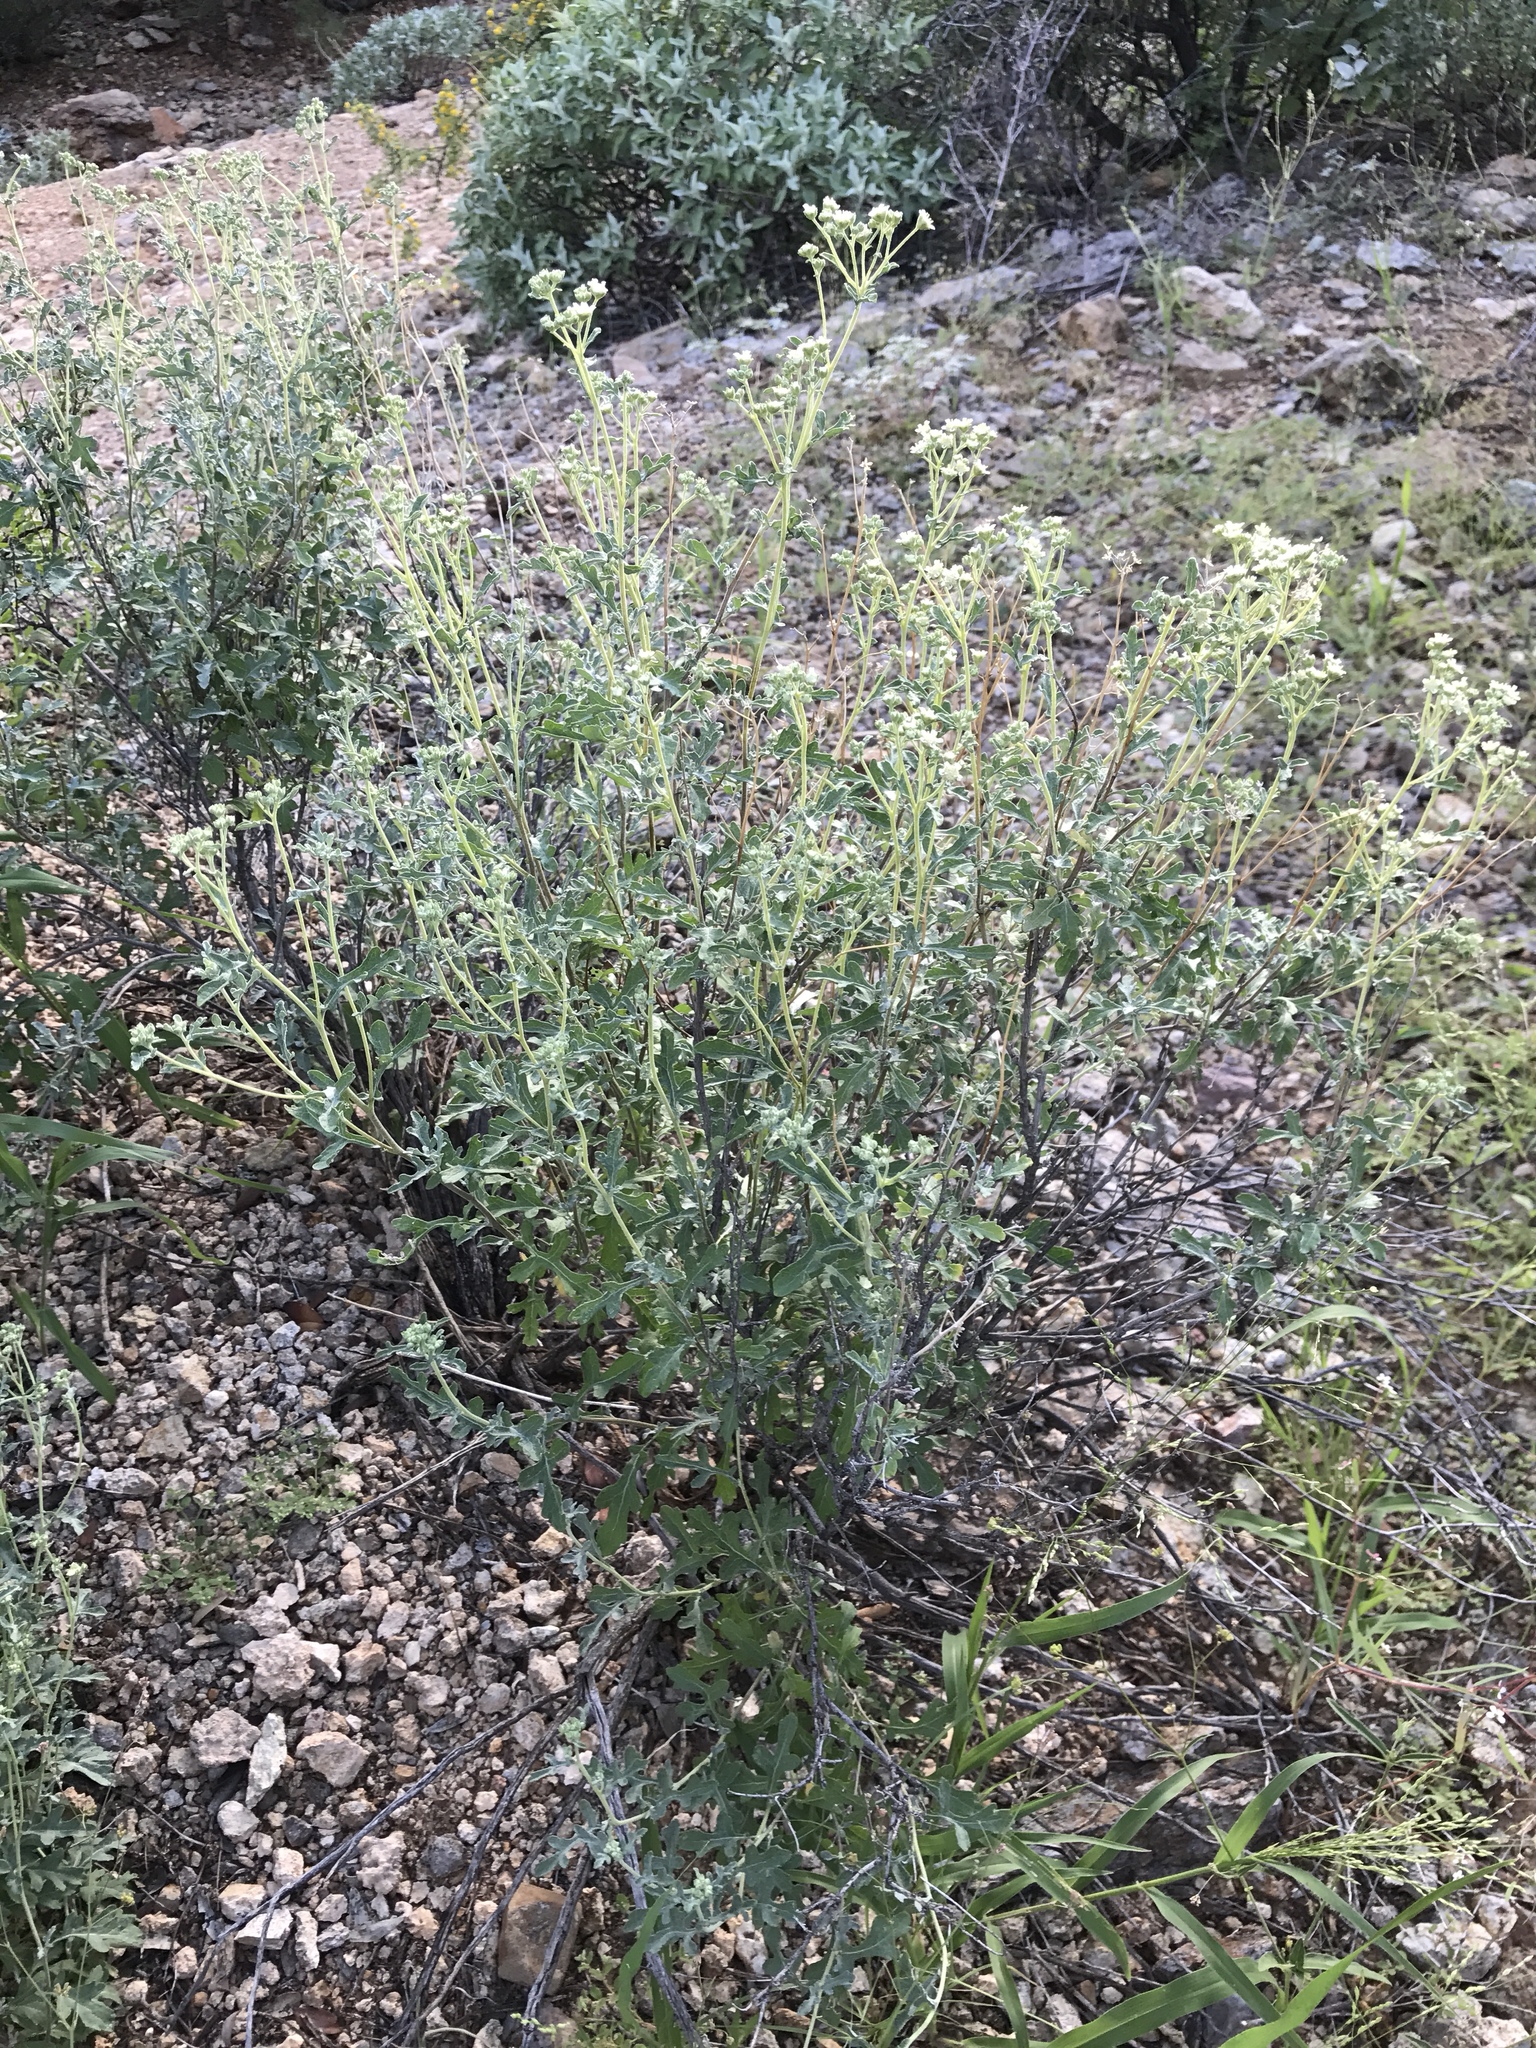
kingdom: Plantae
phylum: Tracheophyta
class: Magnoliopsida
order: Asterales
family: Asteraceae
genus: Parthenium
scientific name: Parthenium incanum
